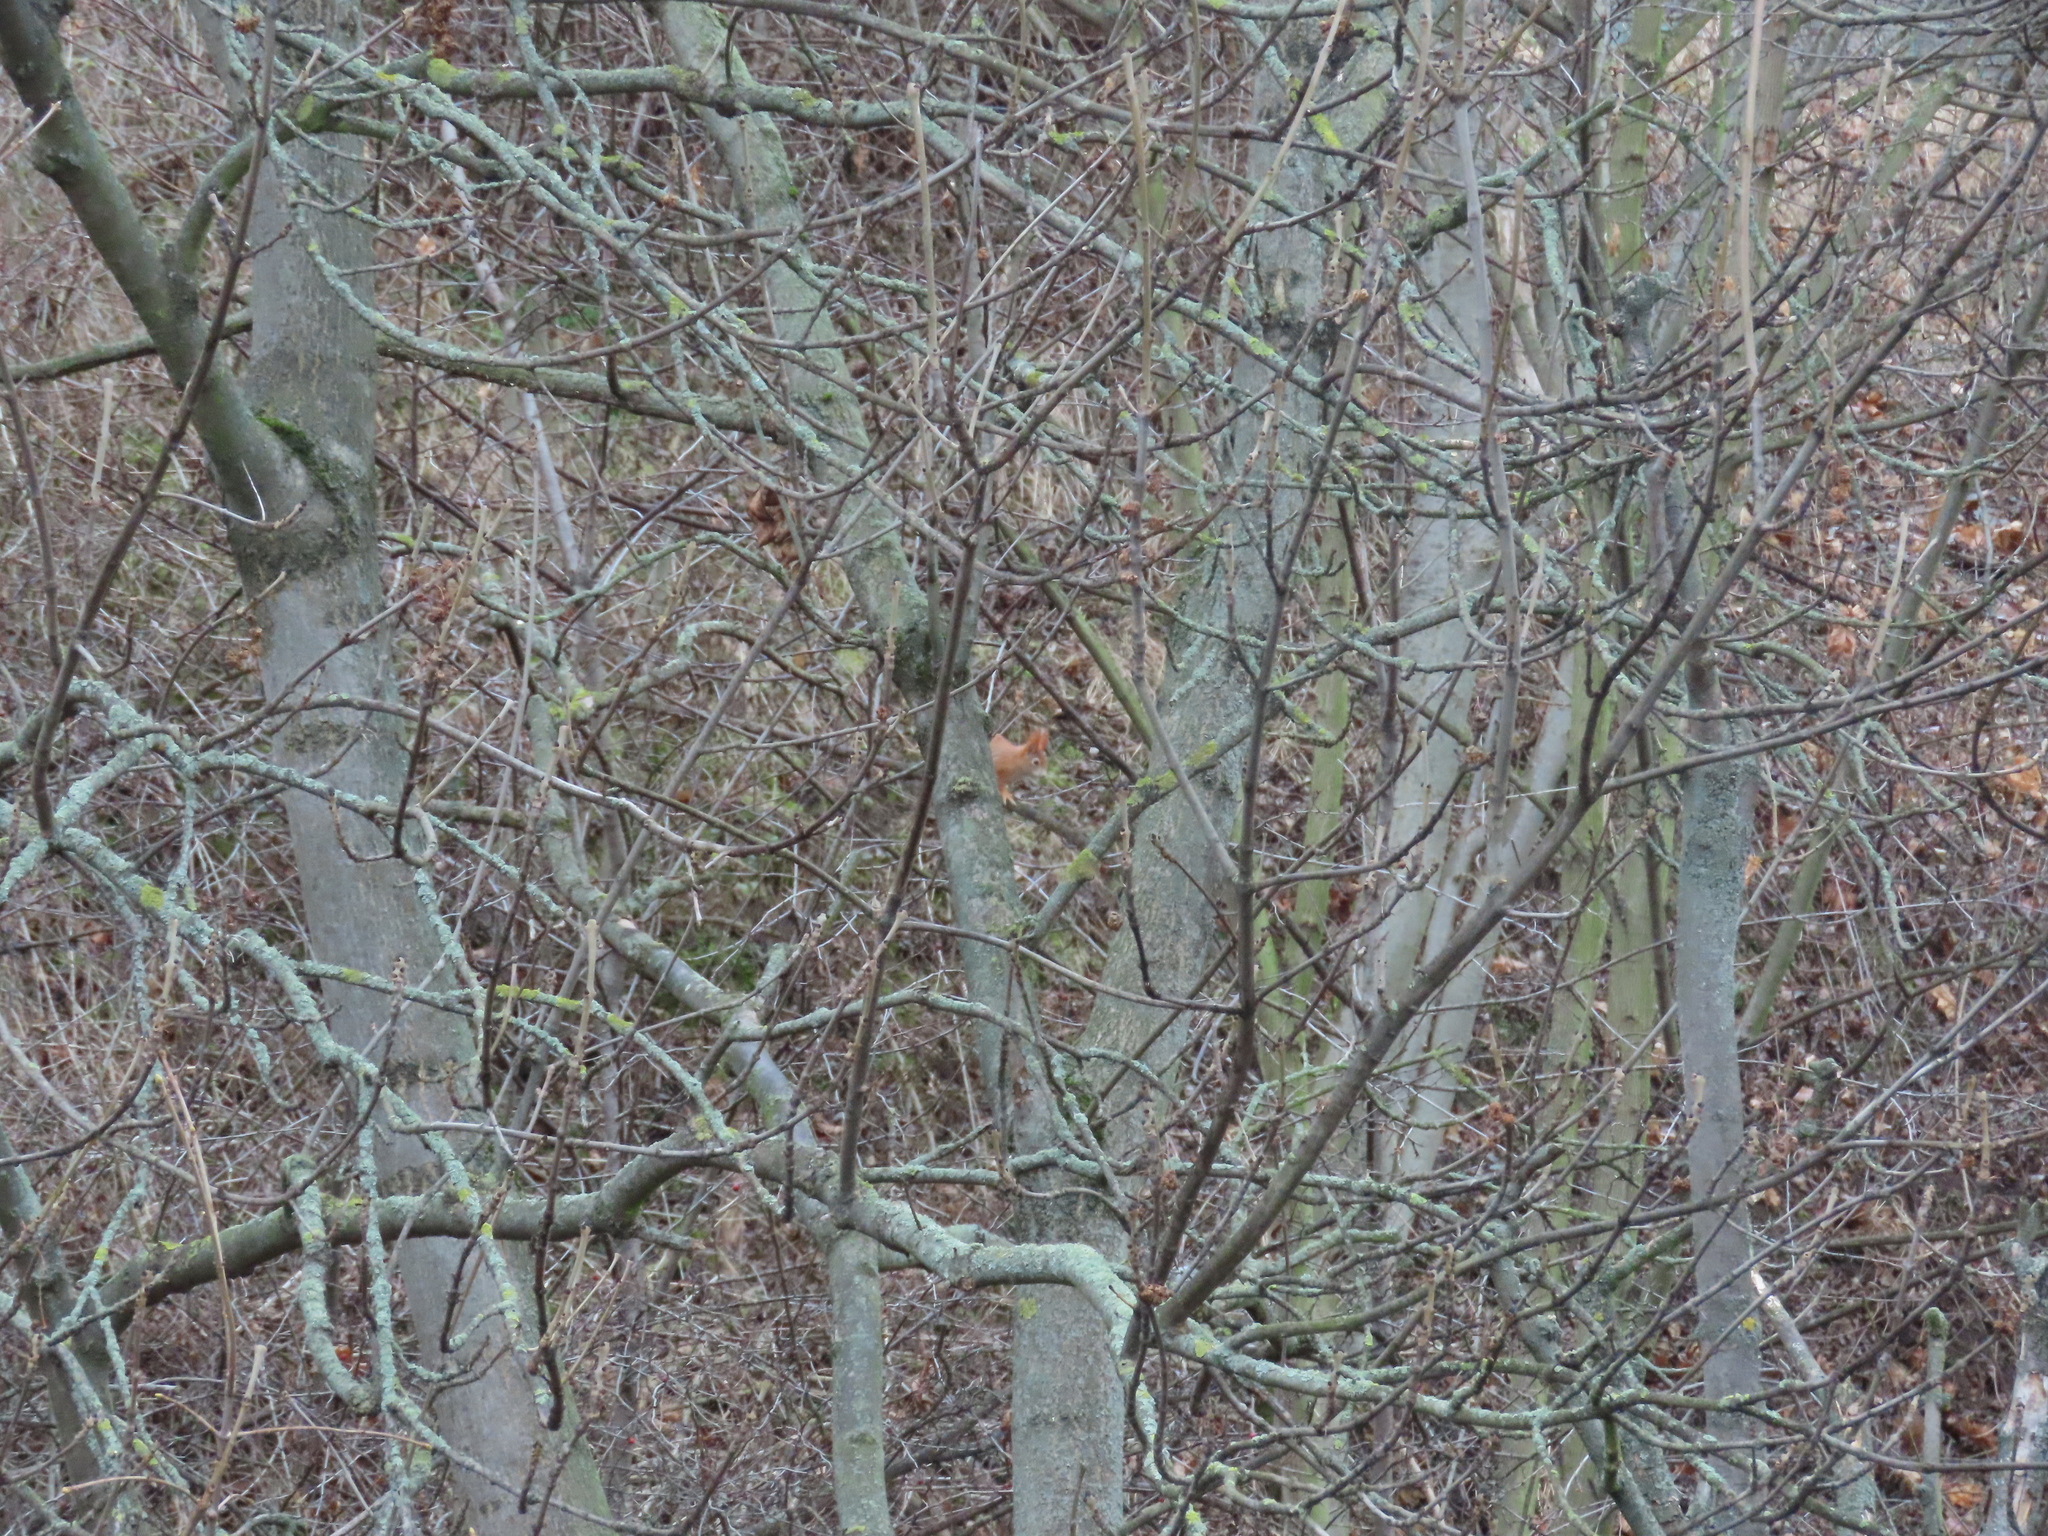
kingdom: Animalia
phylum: Chordata
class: Mammalia
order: Rodentia
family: Sciuridae
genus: Sciurus
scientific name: Sciurus vulgaris
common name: Eurasian red squirrel
